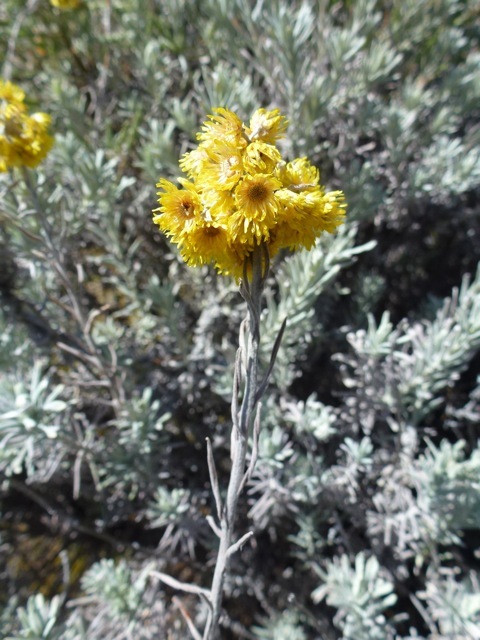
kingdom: Plantae
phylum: Tracheophyta
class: Magnoliopsida
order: Asterales
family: Asteraceae
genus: Helichrysum
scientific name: Helichrysum splendidum
